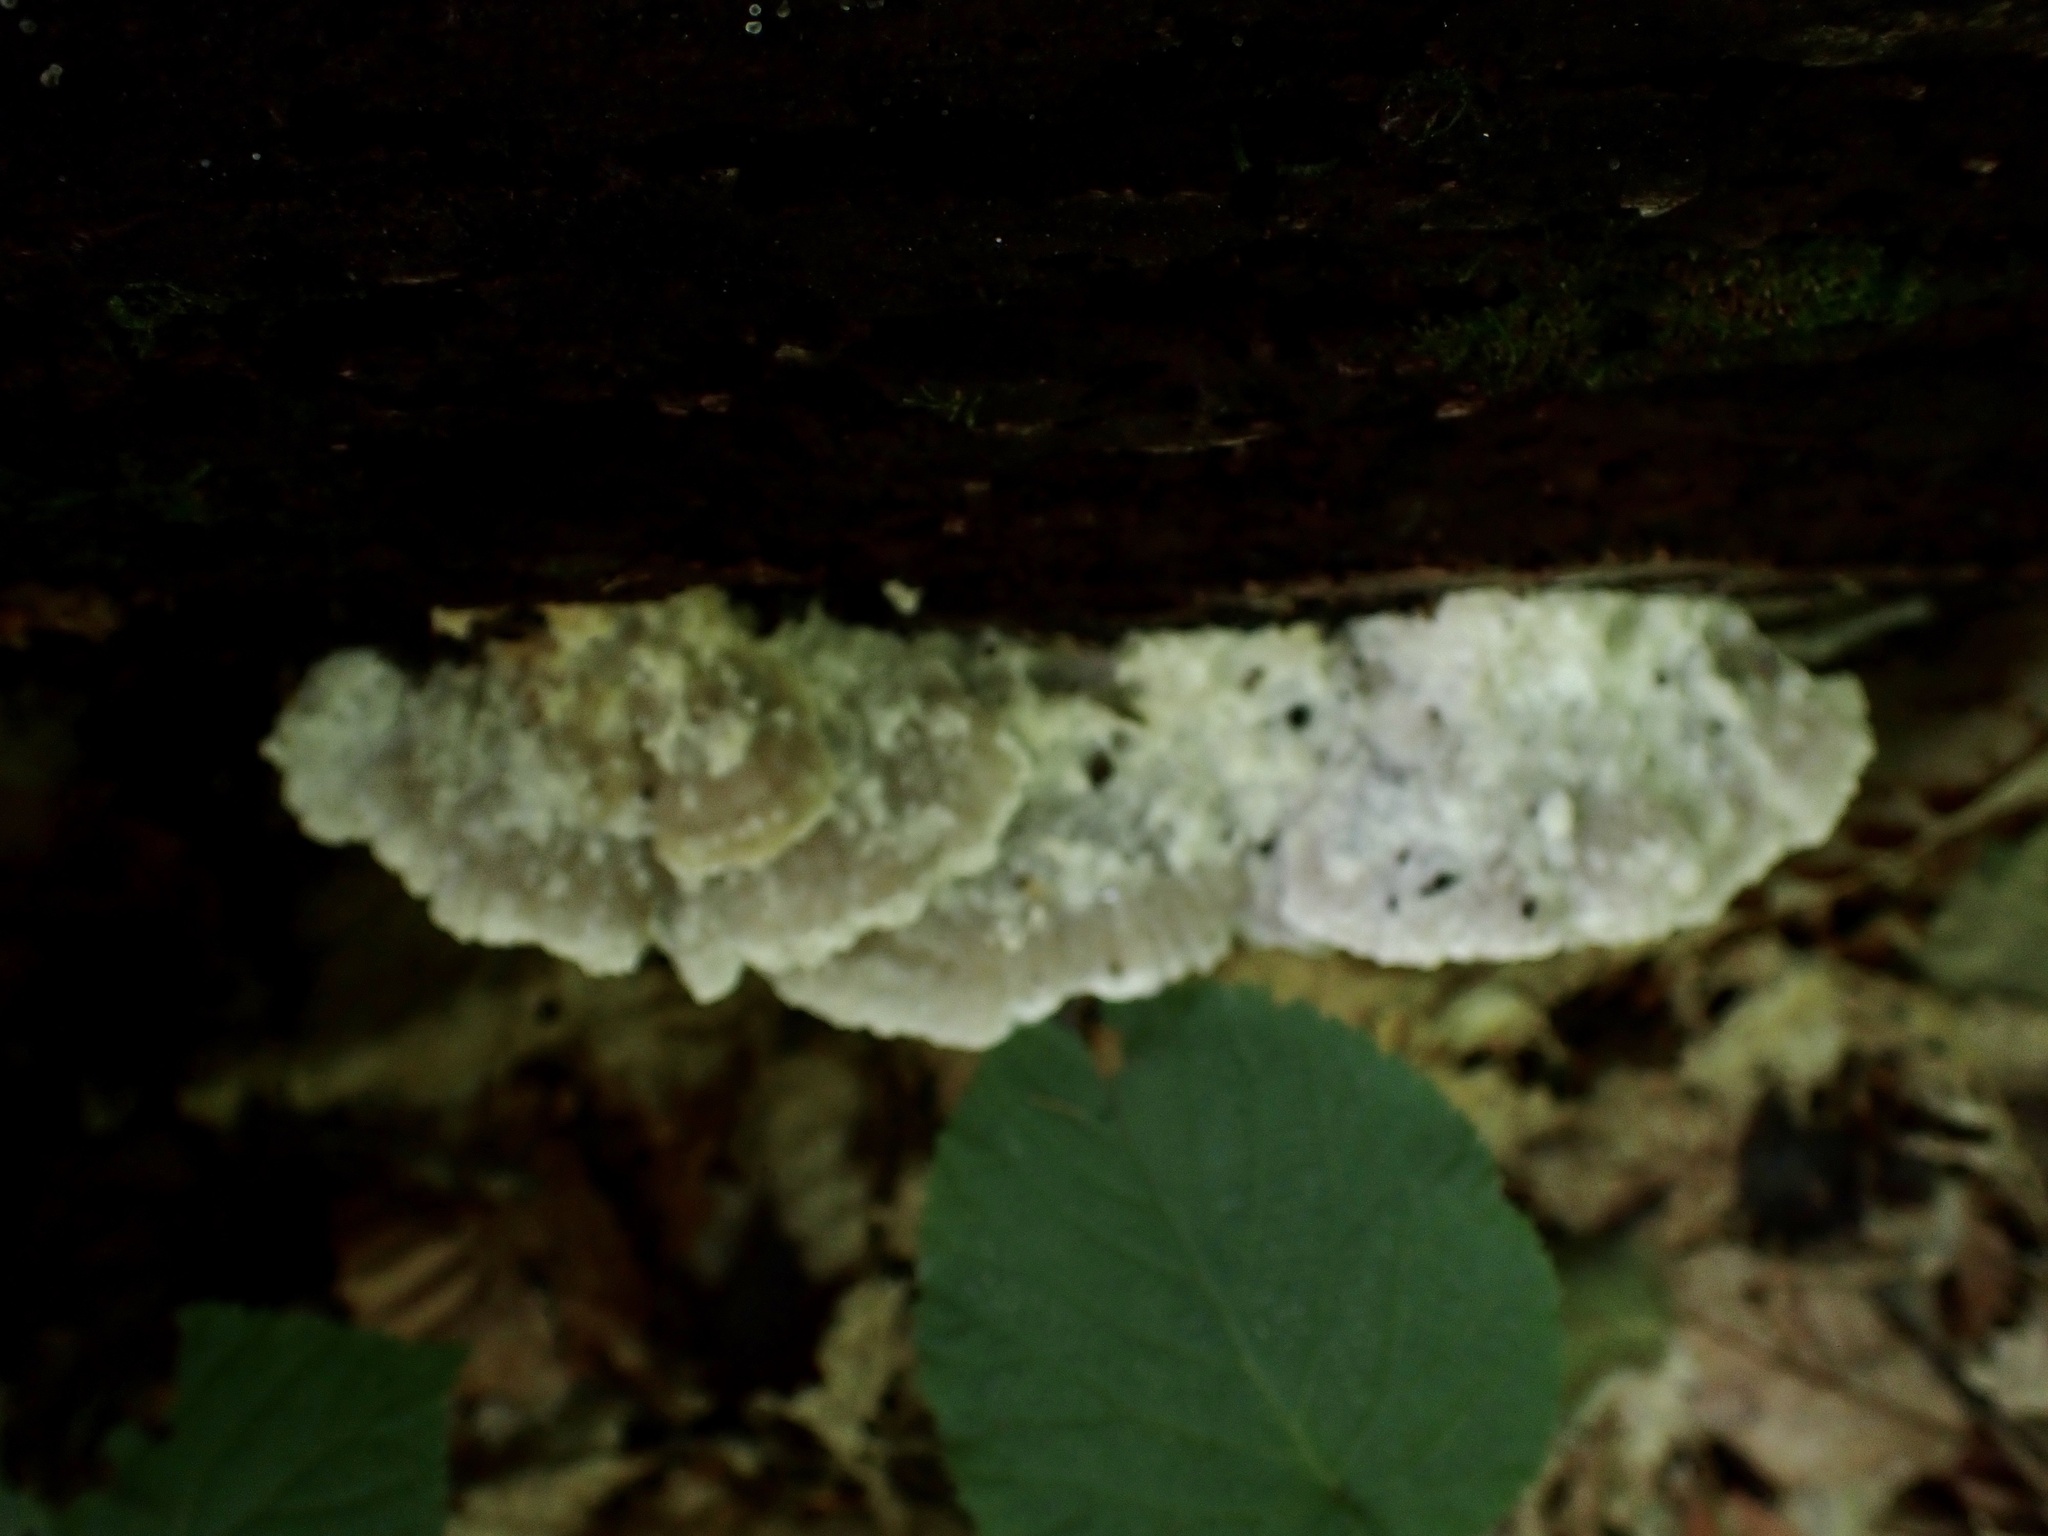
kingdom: Fungi
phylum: Basidiomycota
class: Agaricomycetes
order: Polyporales
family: Incrustoporiaceae
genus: Tyromyces
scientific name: Tyromyces galactinus
